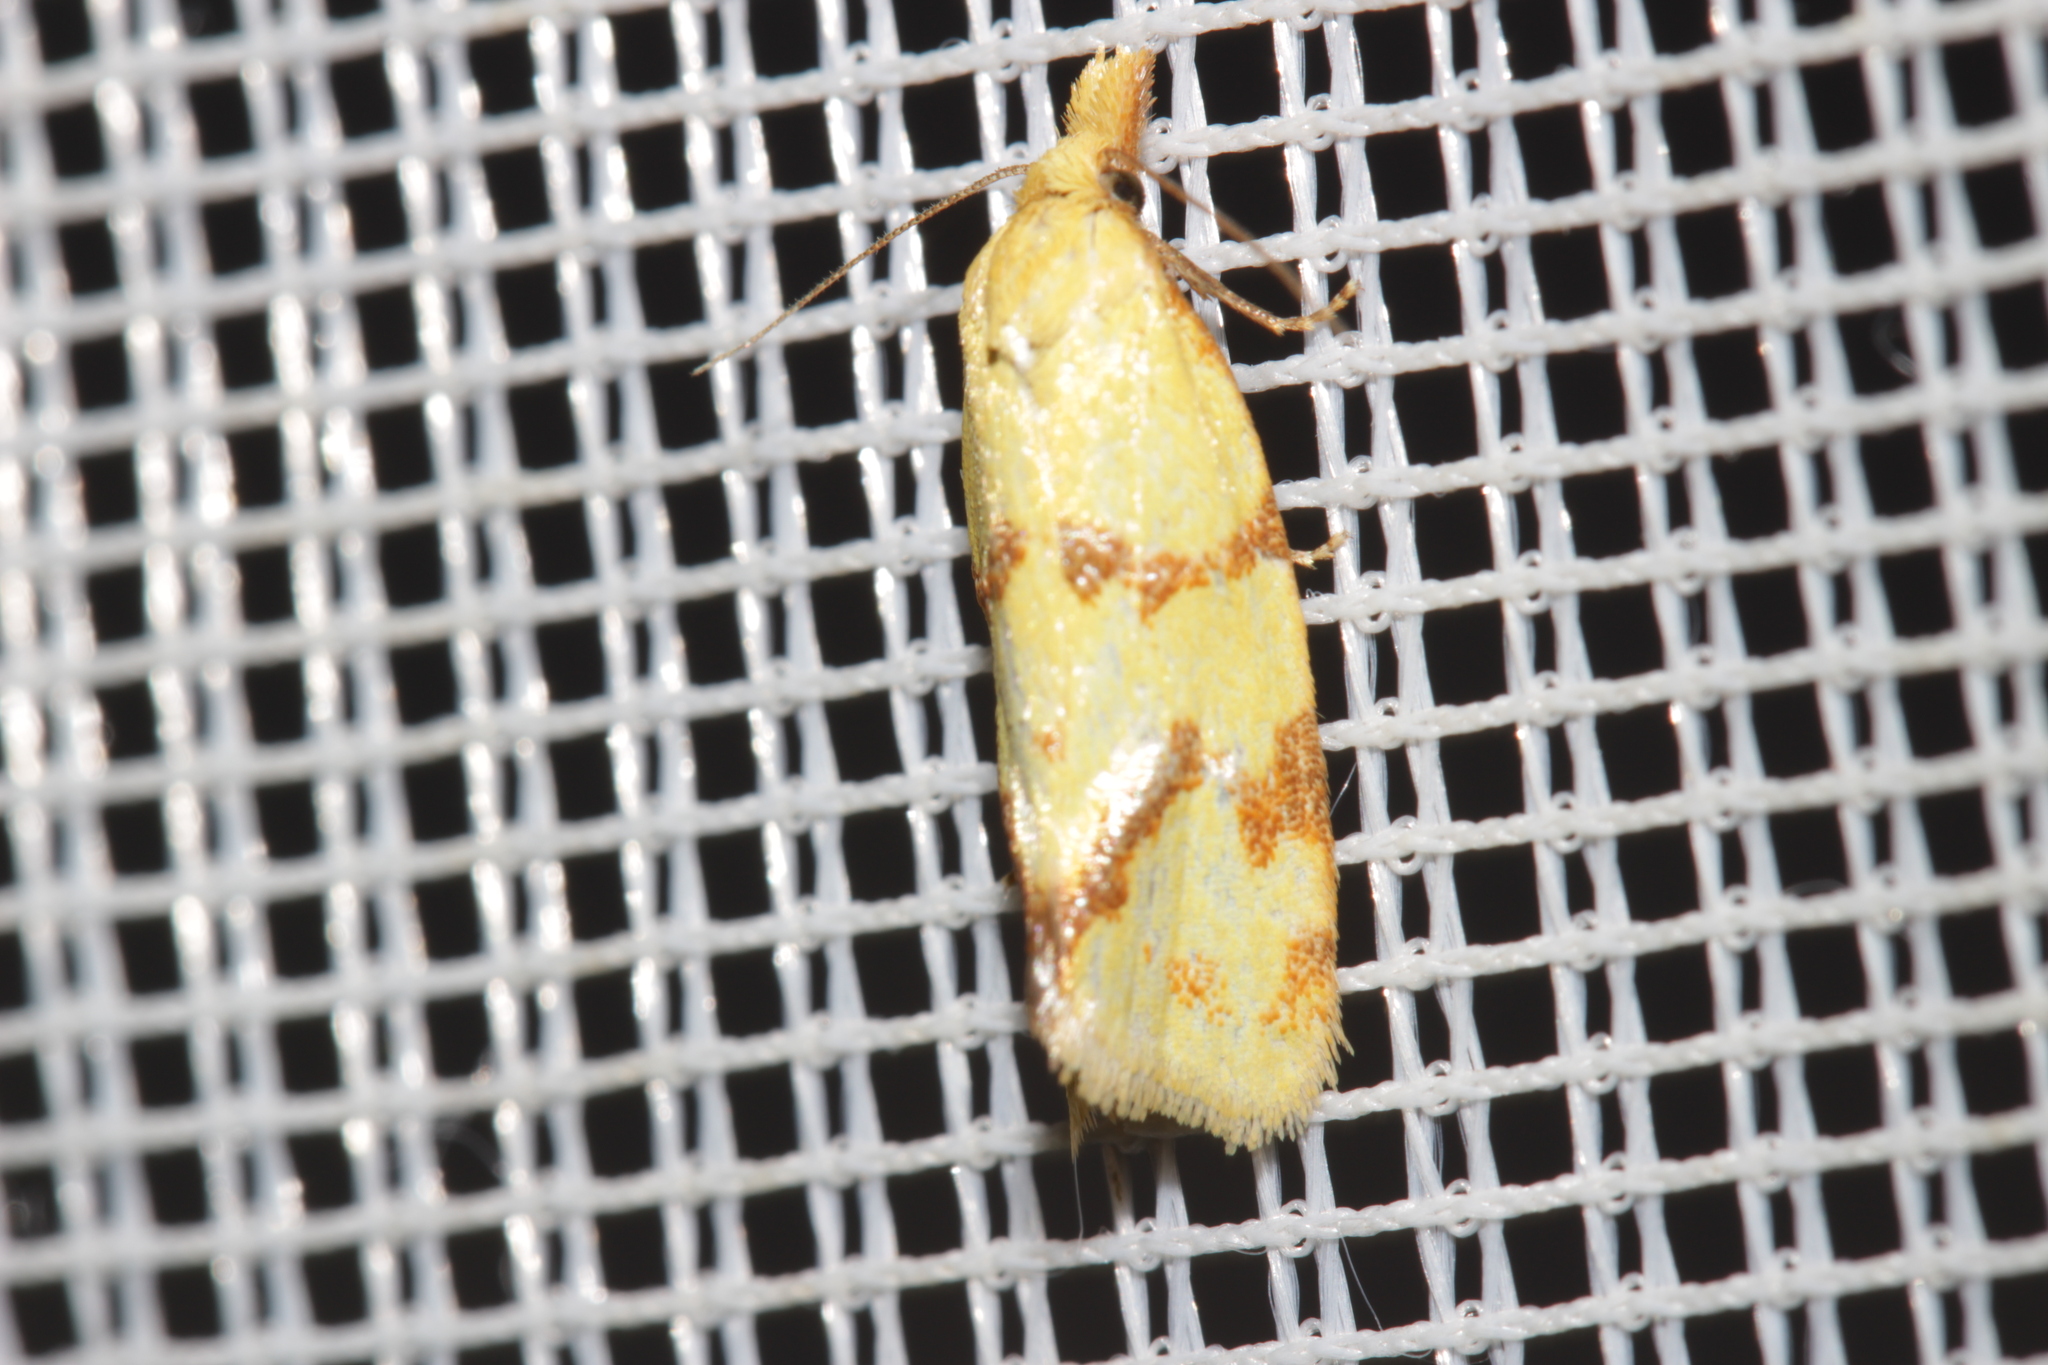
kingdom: Animalia
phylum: Arthropoda
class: Insecta
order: Lepidoptera
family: Tortricidae
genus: Agapeta
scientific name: Agapeta hamana
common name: Common yellow conch
